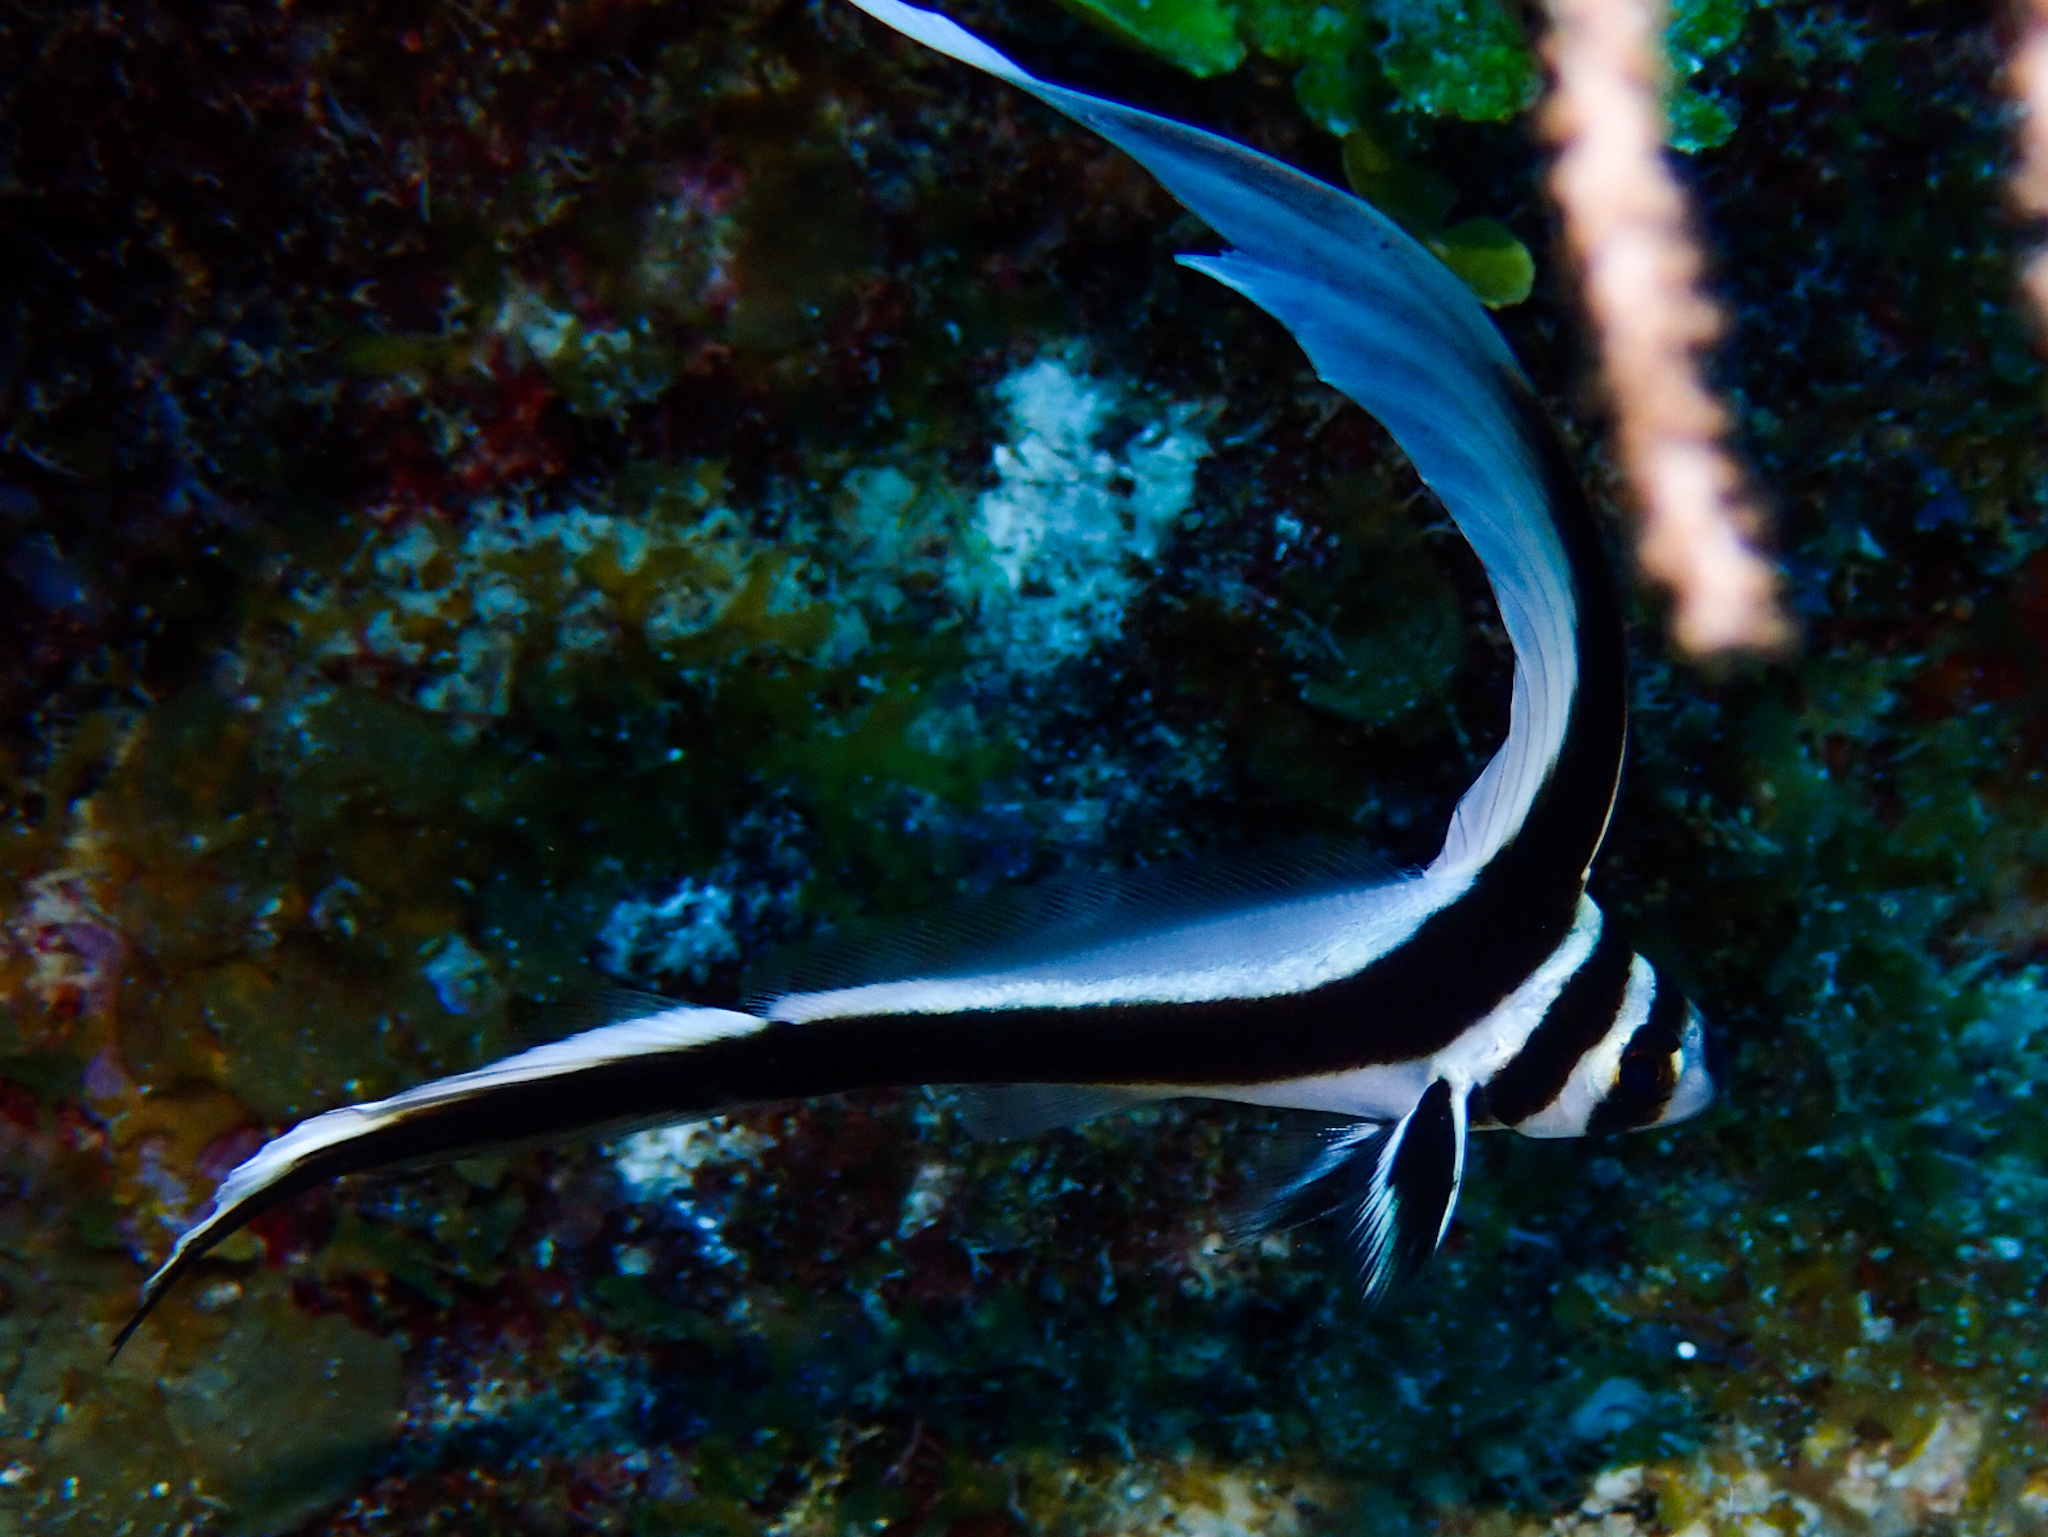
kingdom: Animalia
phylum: Chordata
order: Perciformes
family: Sciaenidae
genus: Equetus
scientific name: Equetus punctatus
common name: Spotted drum
